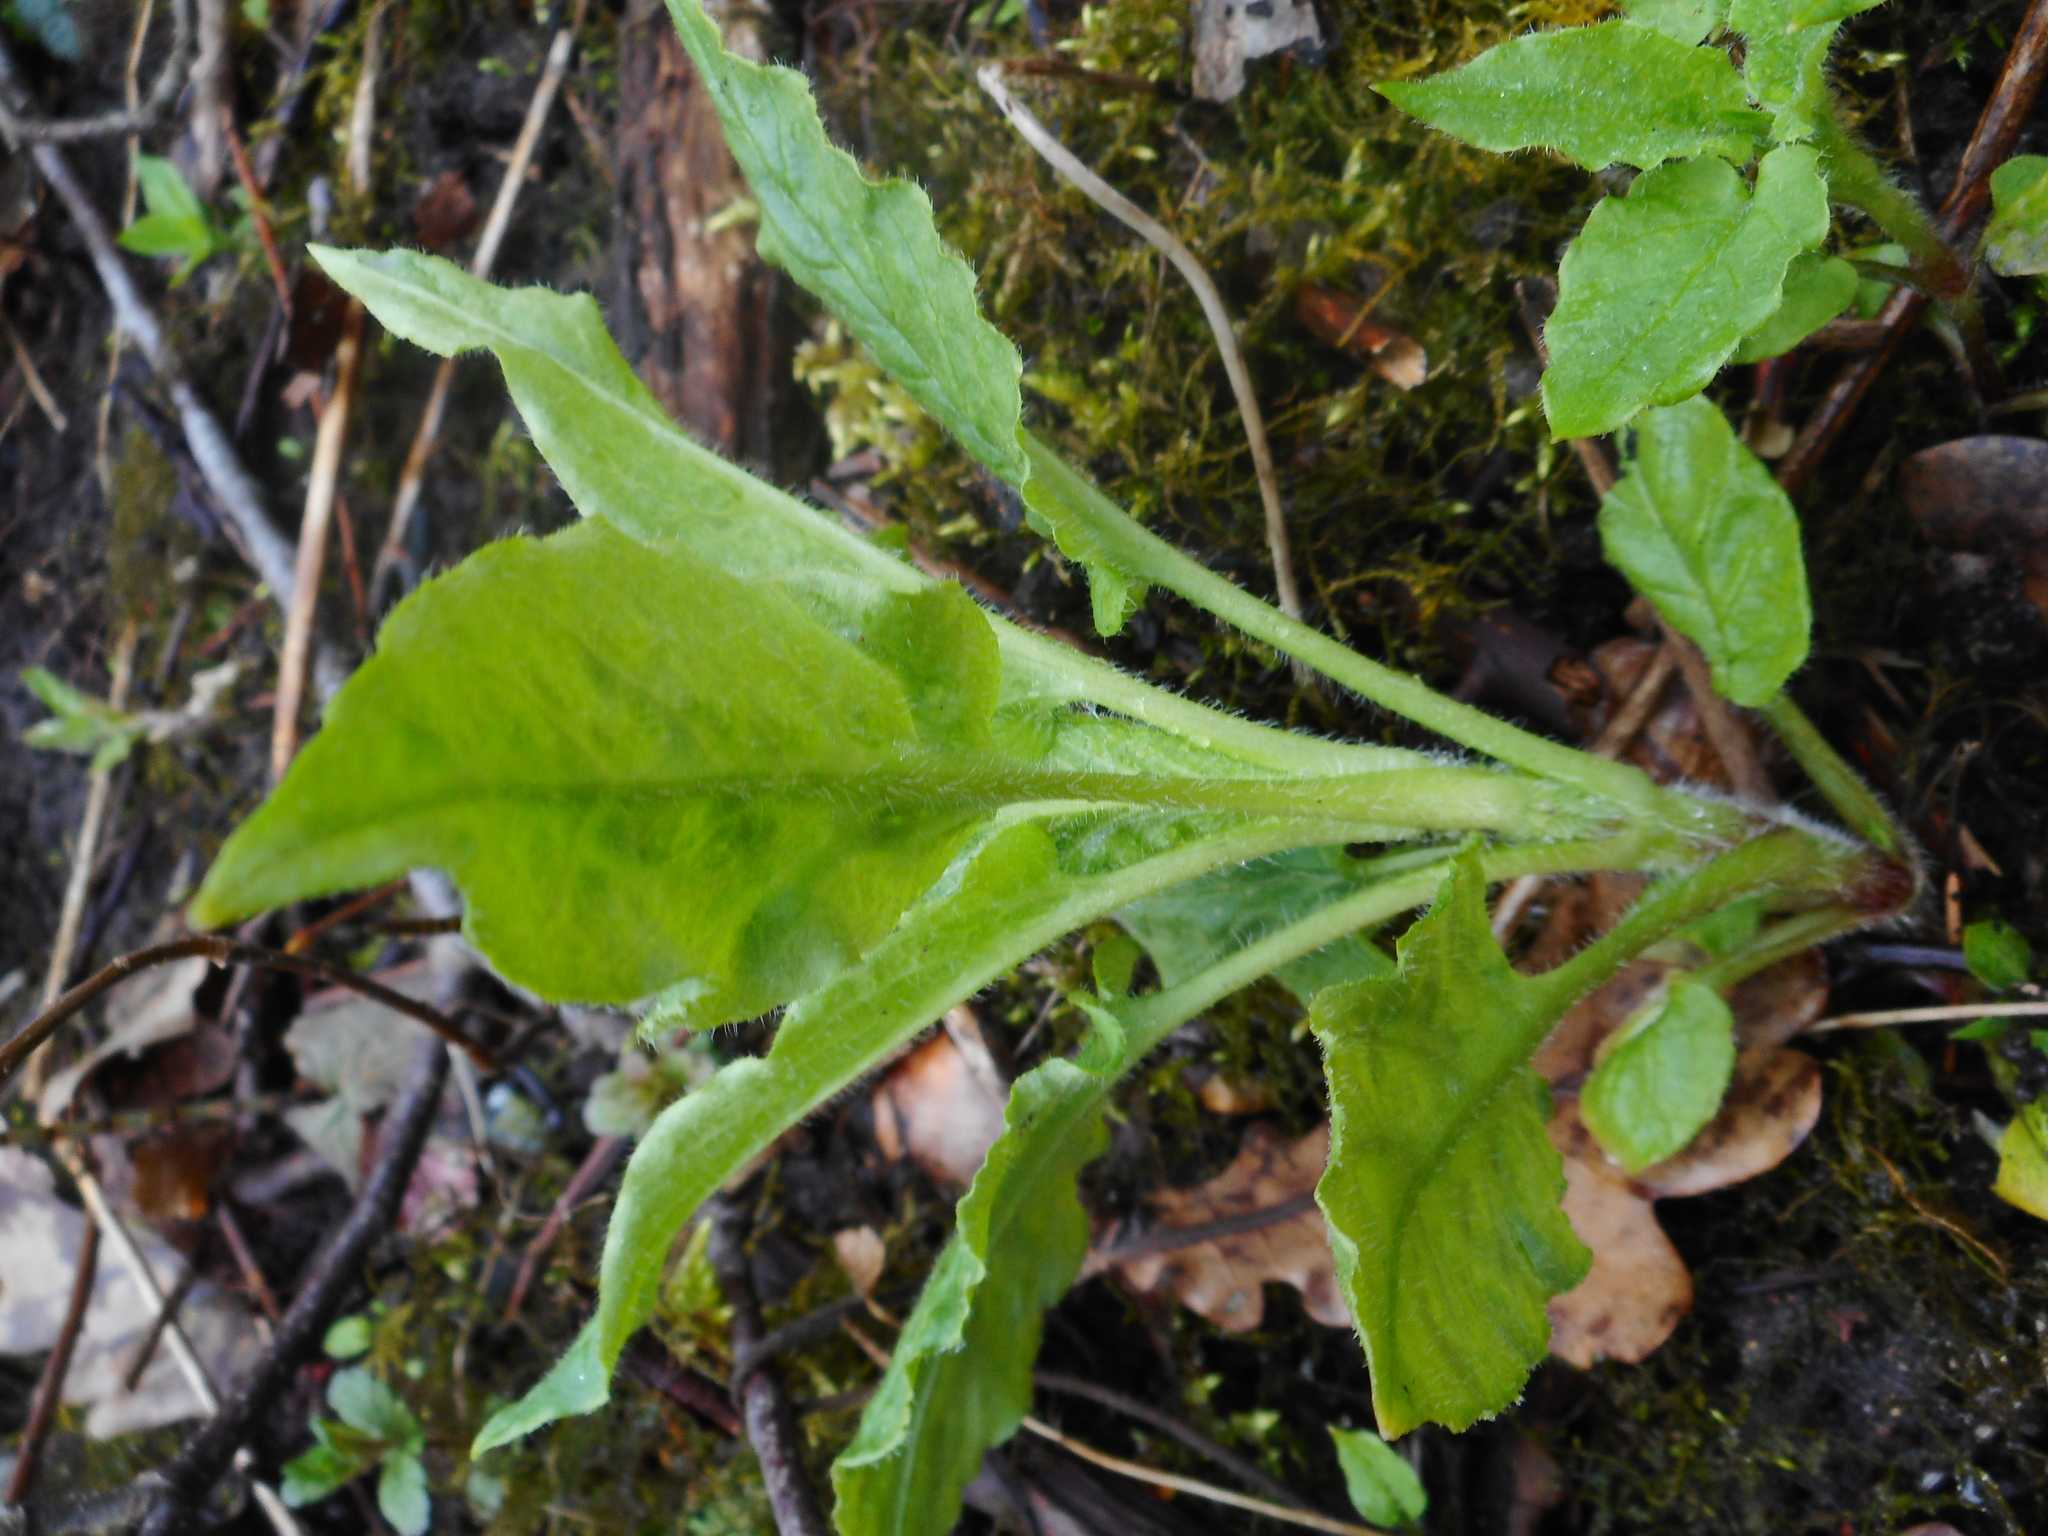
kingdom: Plantae
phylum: Tracheophyta
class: Magnoliopsida
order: Caryophyllales
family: Caryophyllaceae
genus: Stellaria
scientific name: Stellaria nemorum
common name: Wood stitchwort
